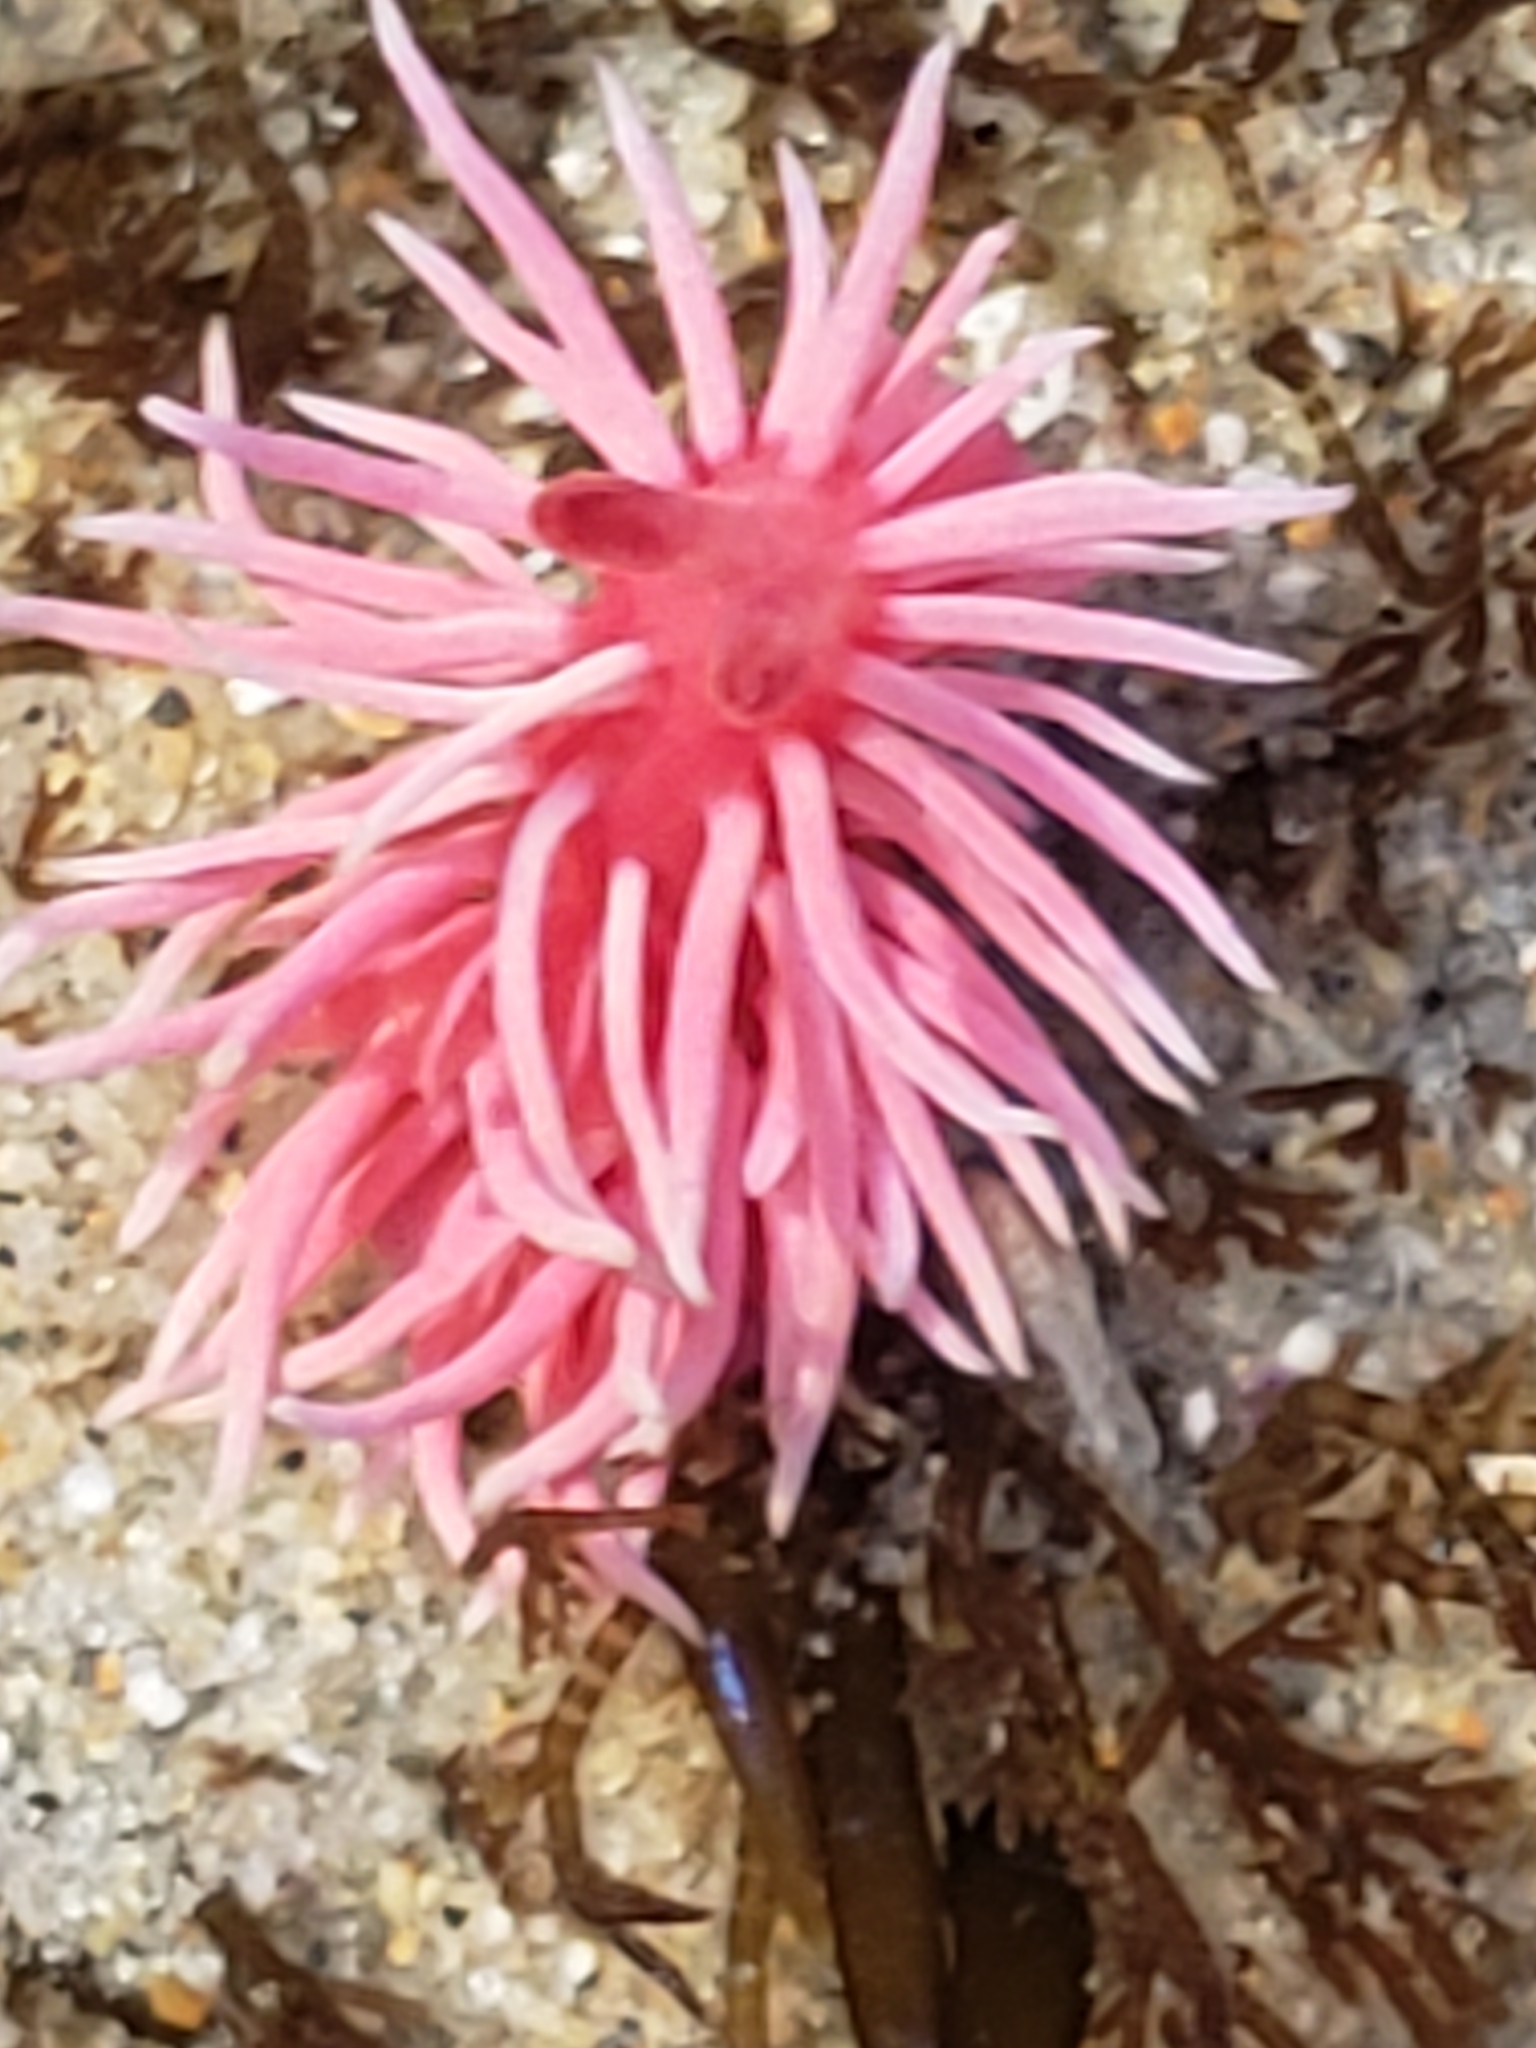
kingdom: Animalia
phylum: Mollusca
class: Gastropoda
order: Nudibranchia
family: Goniodorididae
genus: Okenia
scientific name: Okenia
